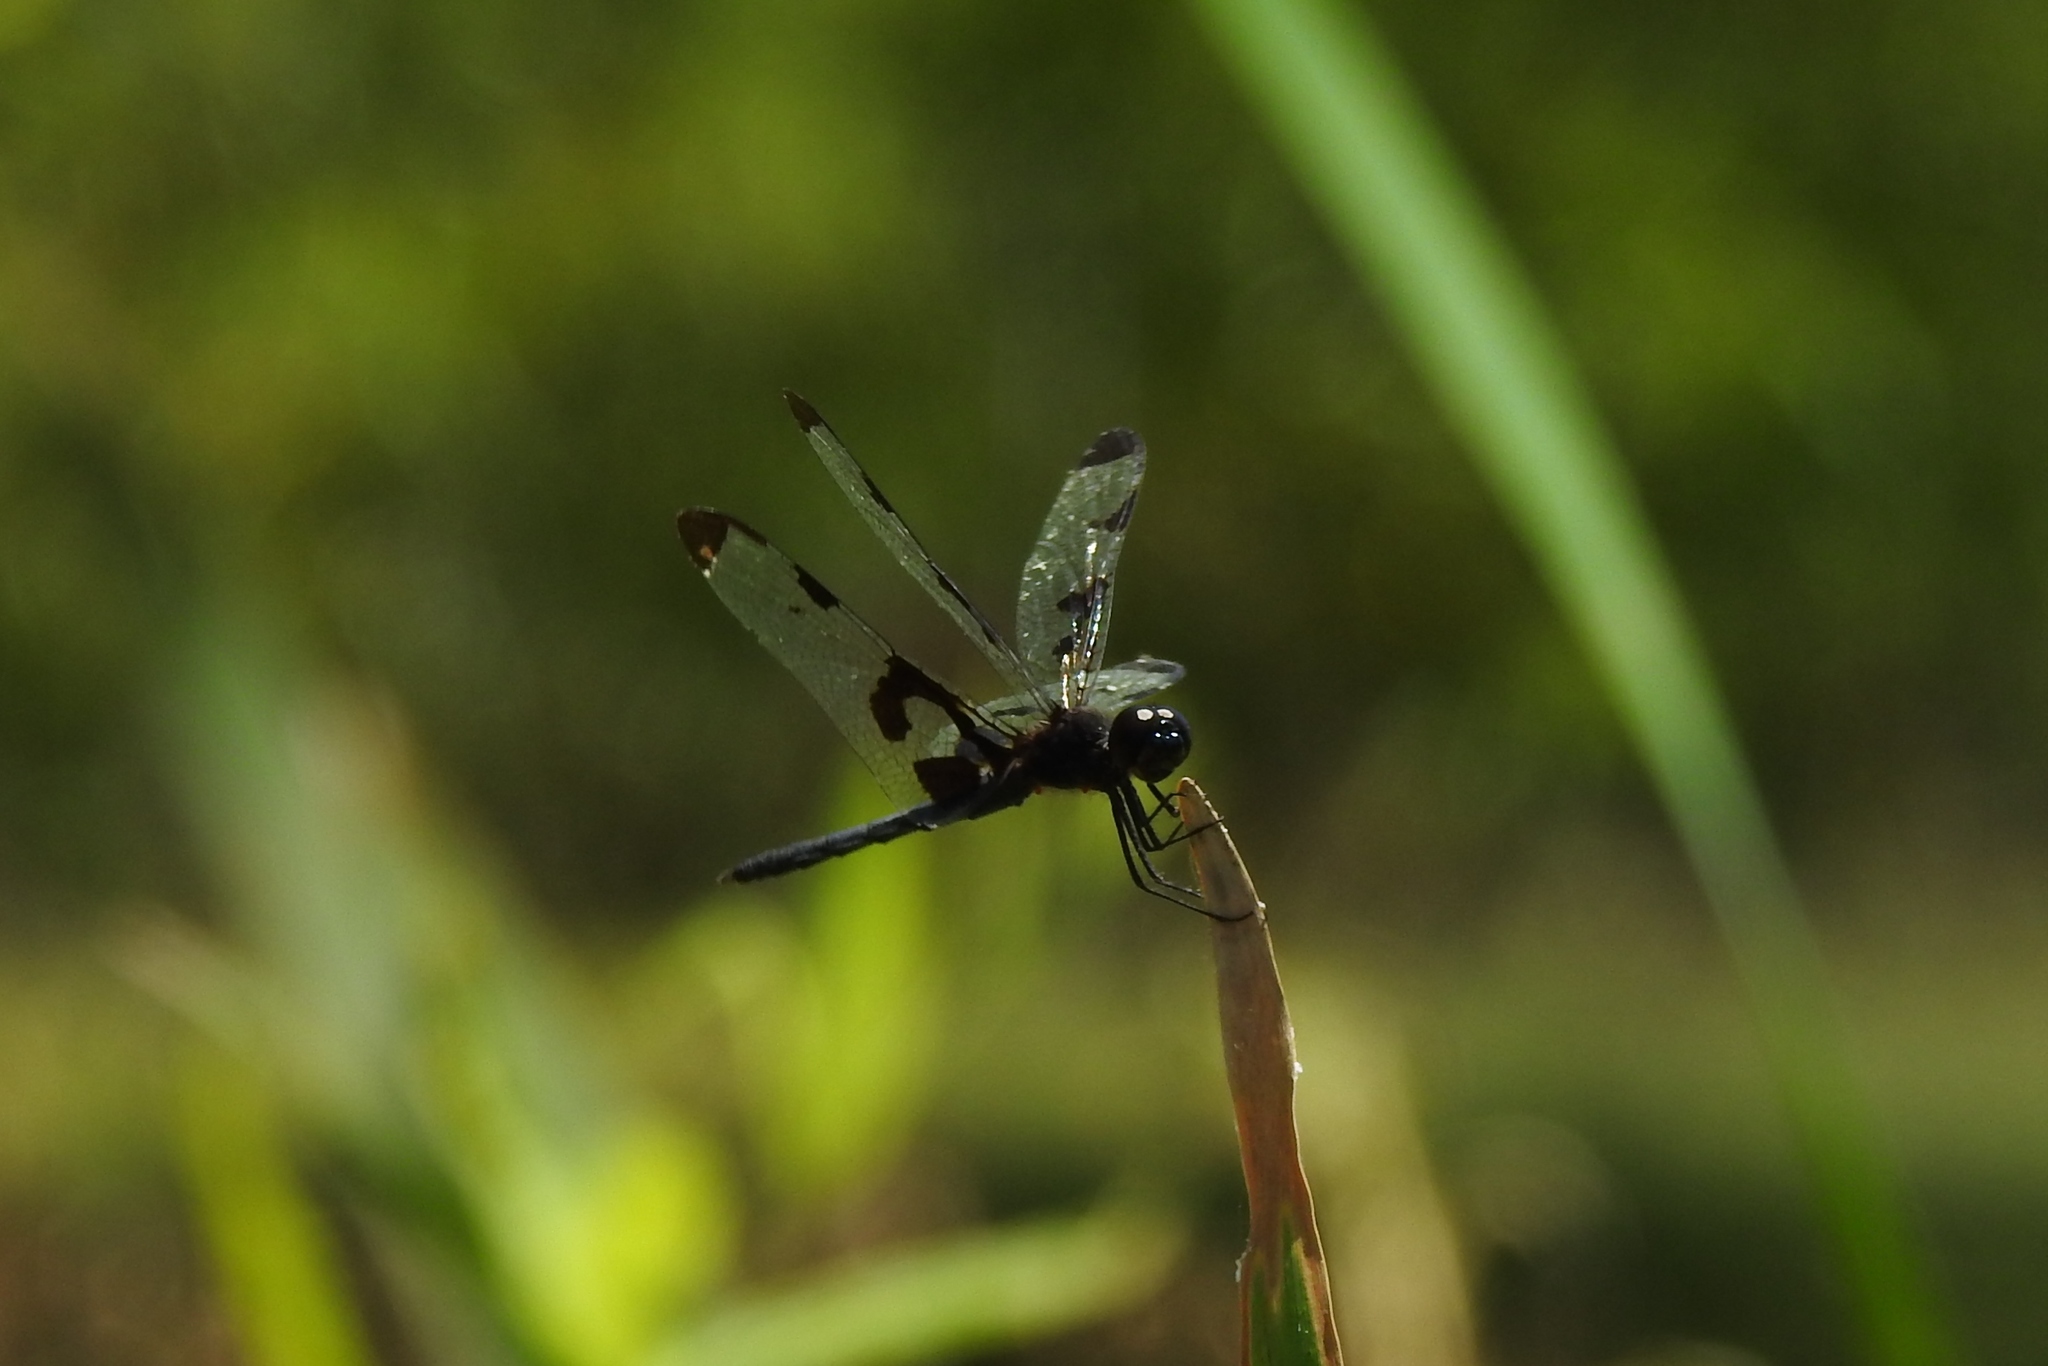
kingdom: Animalia
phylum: Arthropoda
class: Insecta
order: Odonata
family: Libellulidae
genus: Celithemis
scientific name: Celithemis fasciata
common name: Banded pennant
